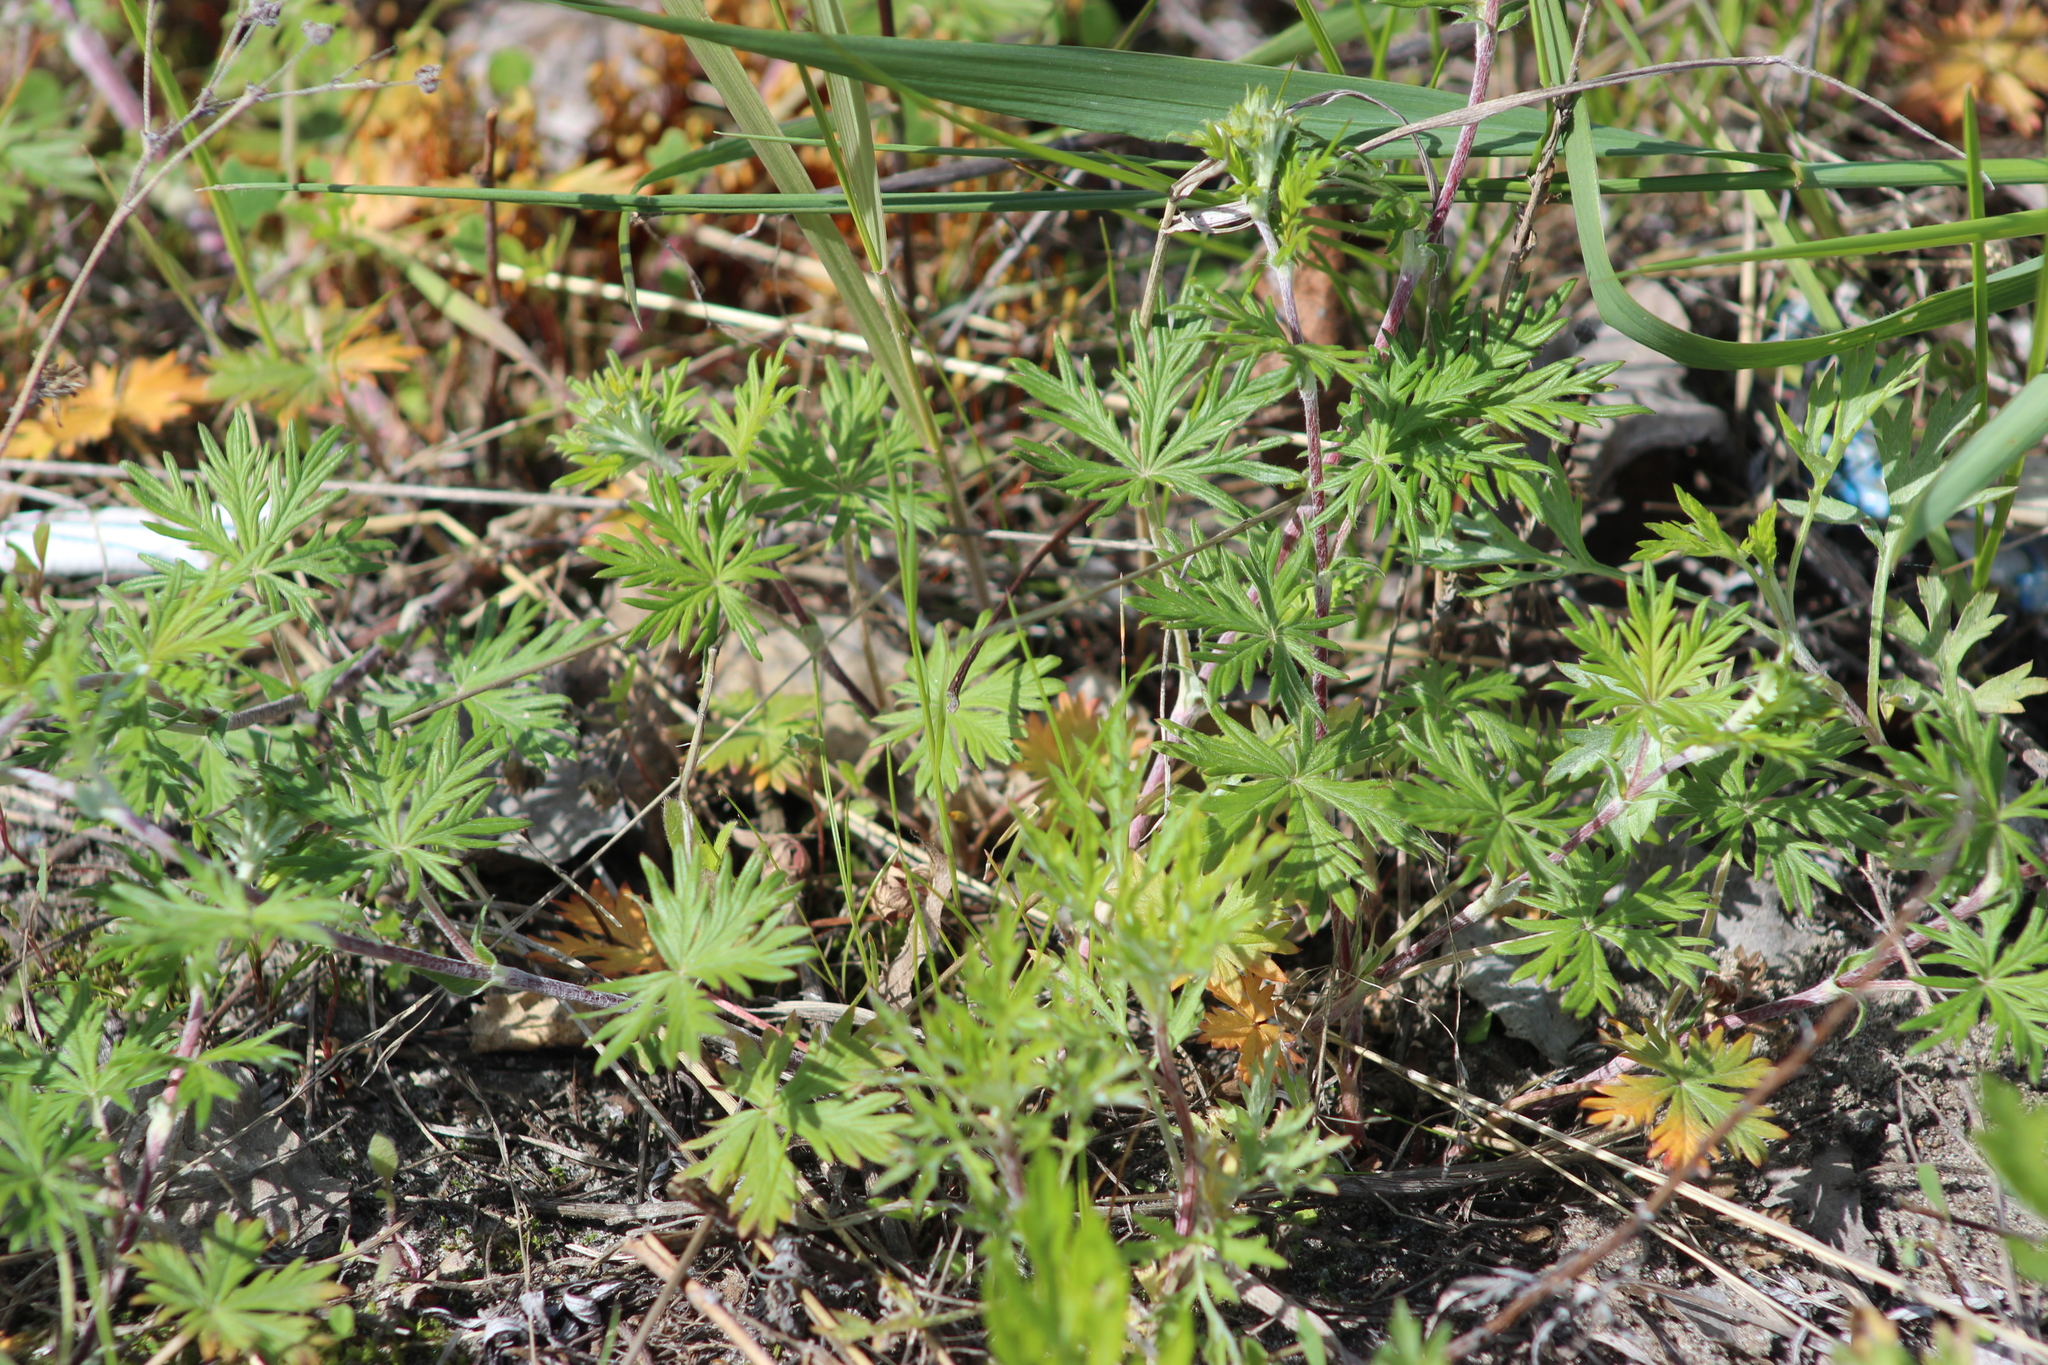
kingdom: Plantae
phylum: Tracheophyta
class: Magnoliopsida
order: Rosales
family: Rosaceae
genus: Potentilla
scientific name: Potentilla argentea
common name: Hoary cinquefoil
